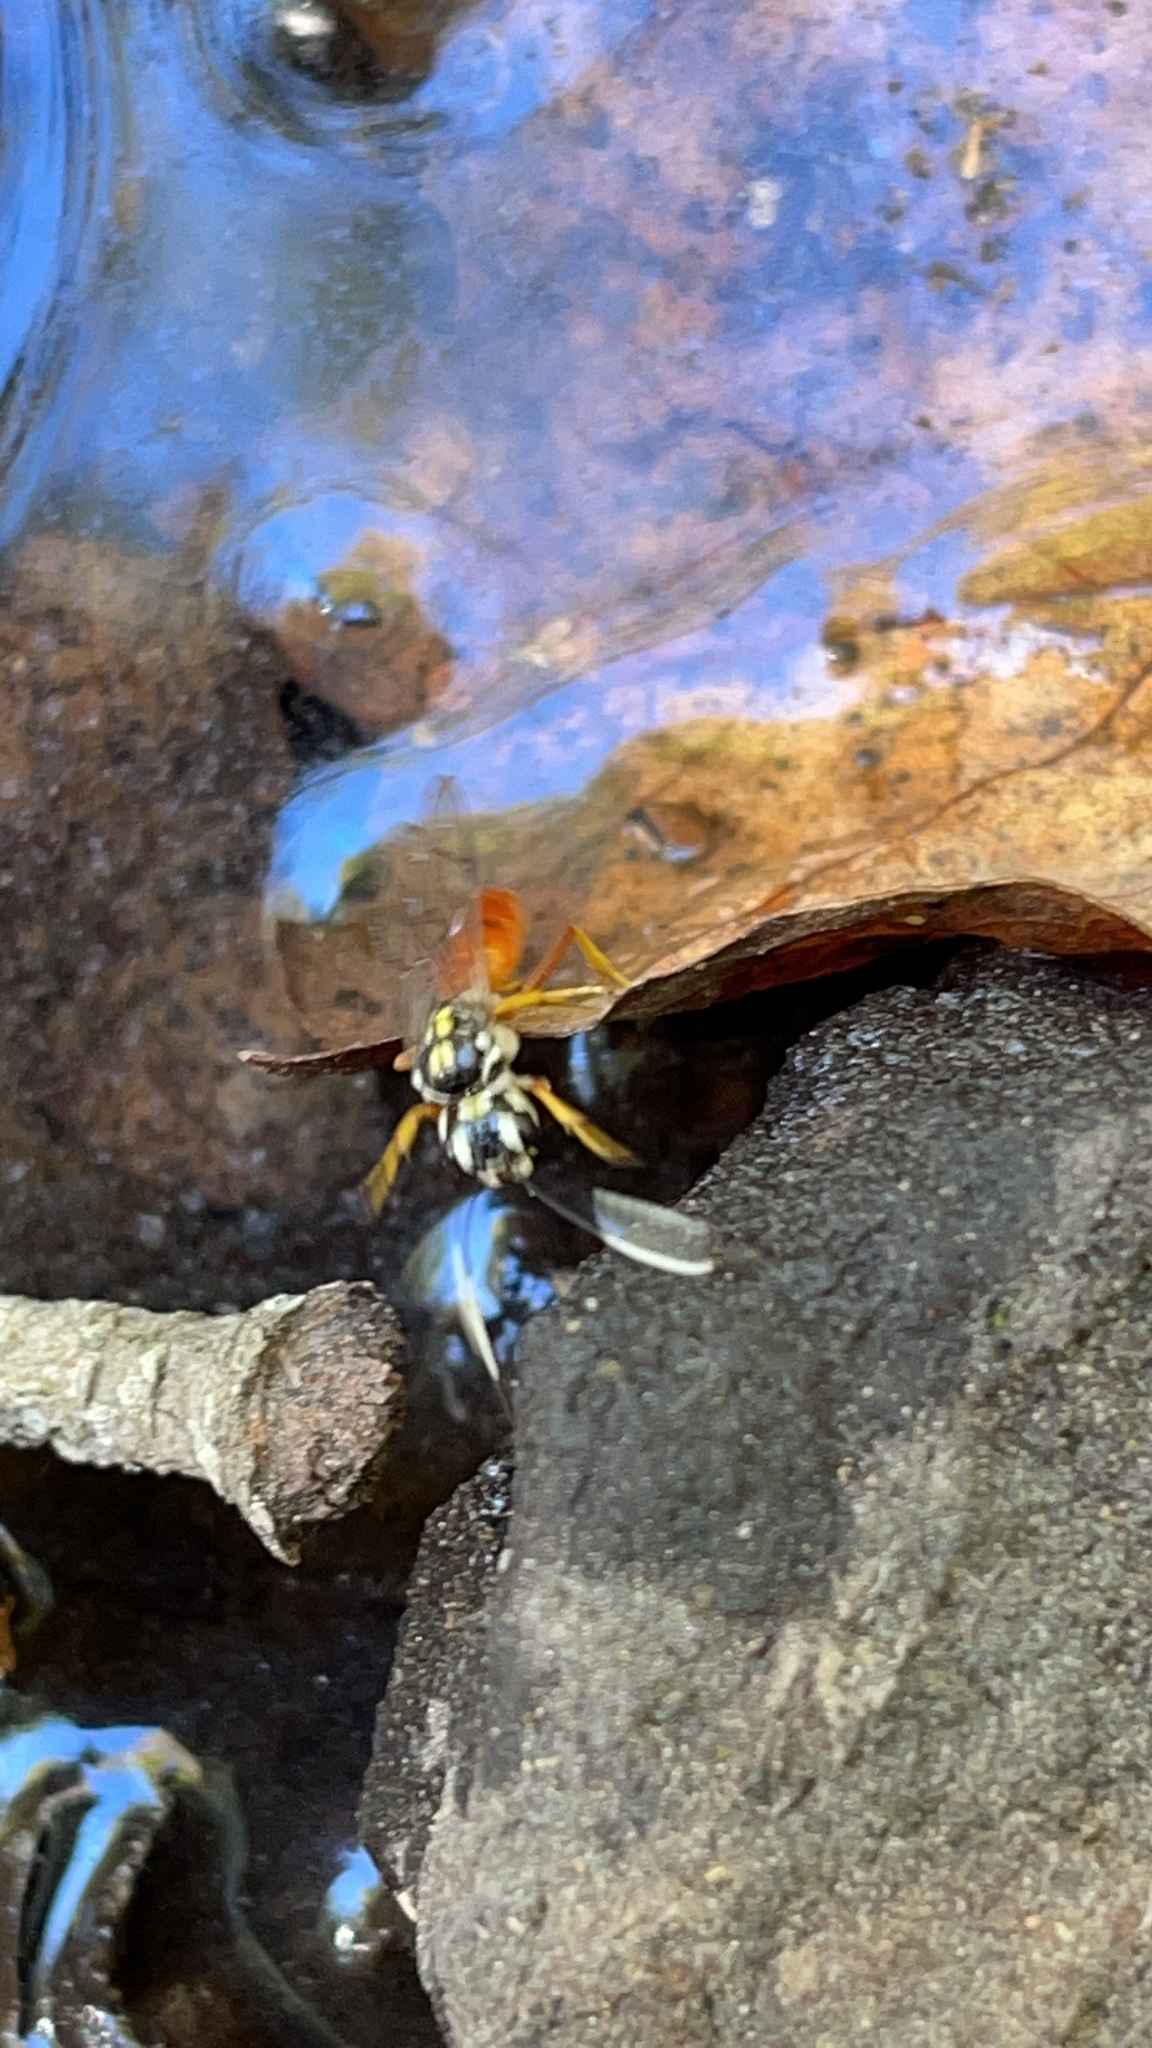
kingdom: Animalia
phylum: Arthropoda
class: Insecta
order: Hymenoptera
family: Trigonalidae
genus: Orthogonalys
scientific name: Orthogonalys pulchella
